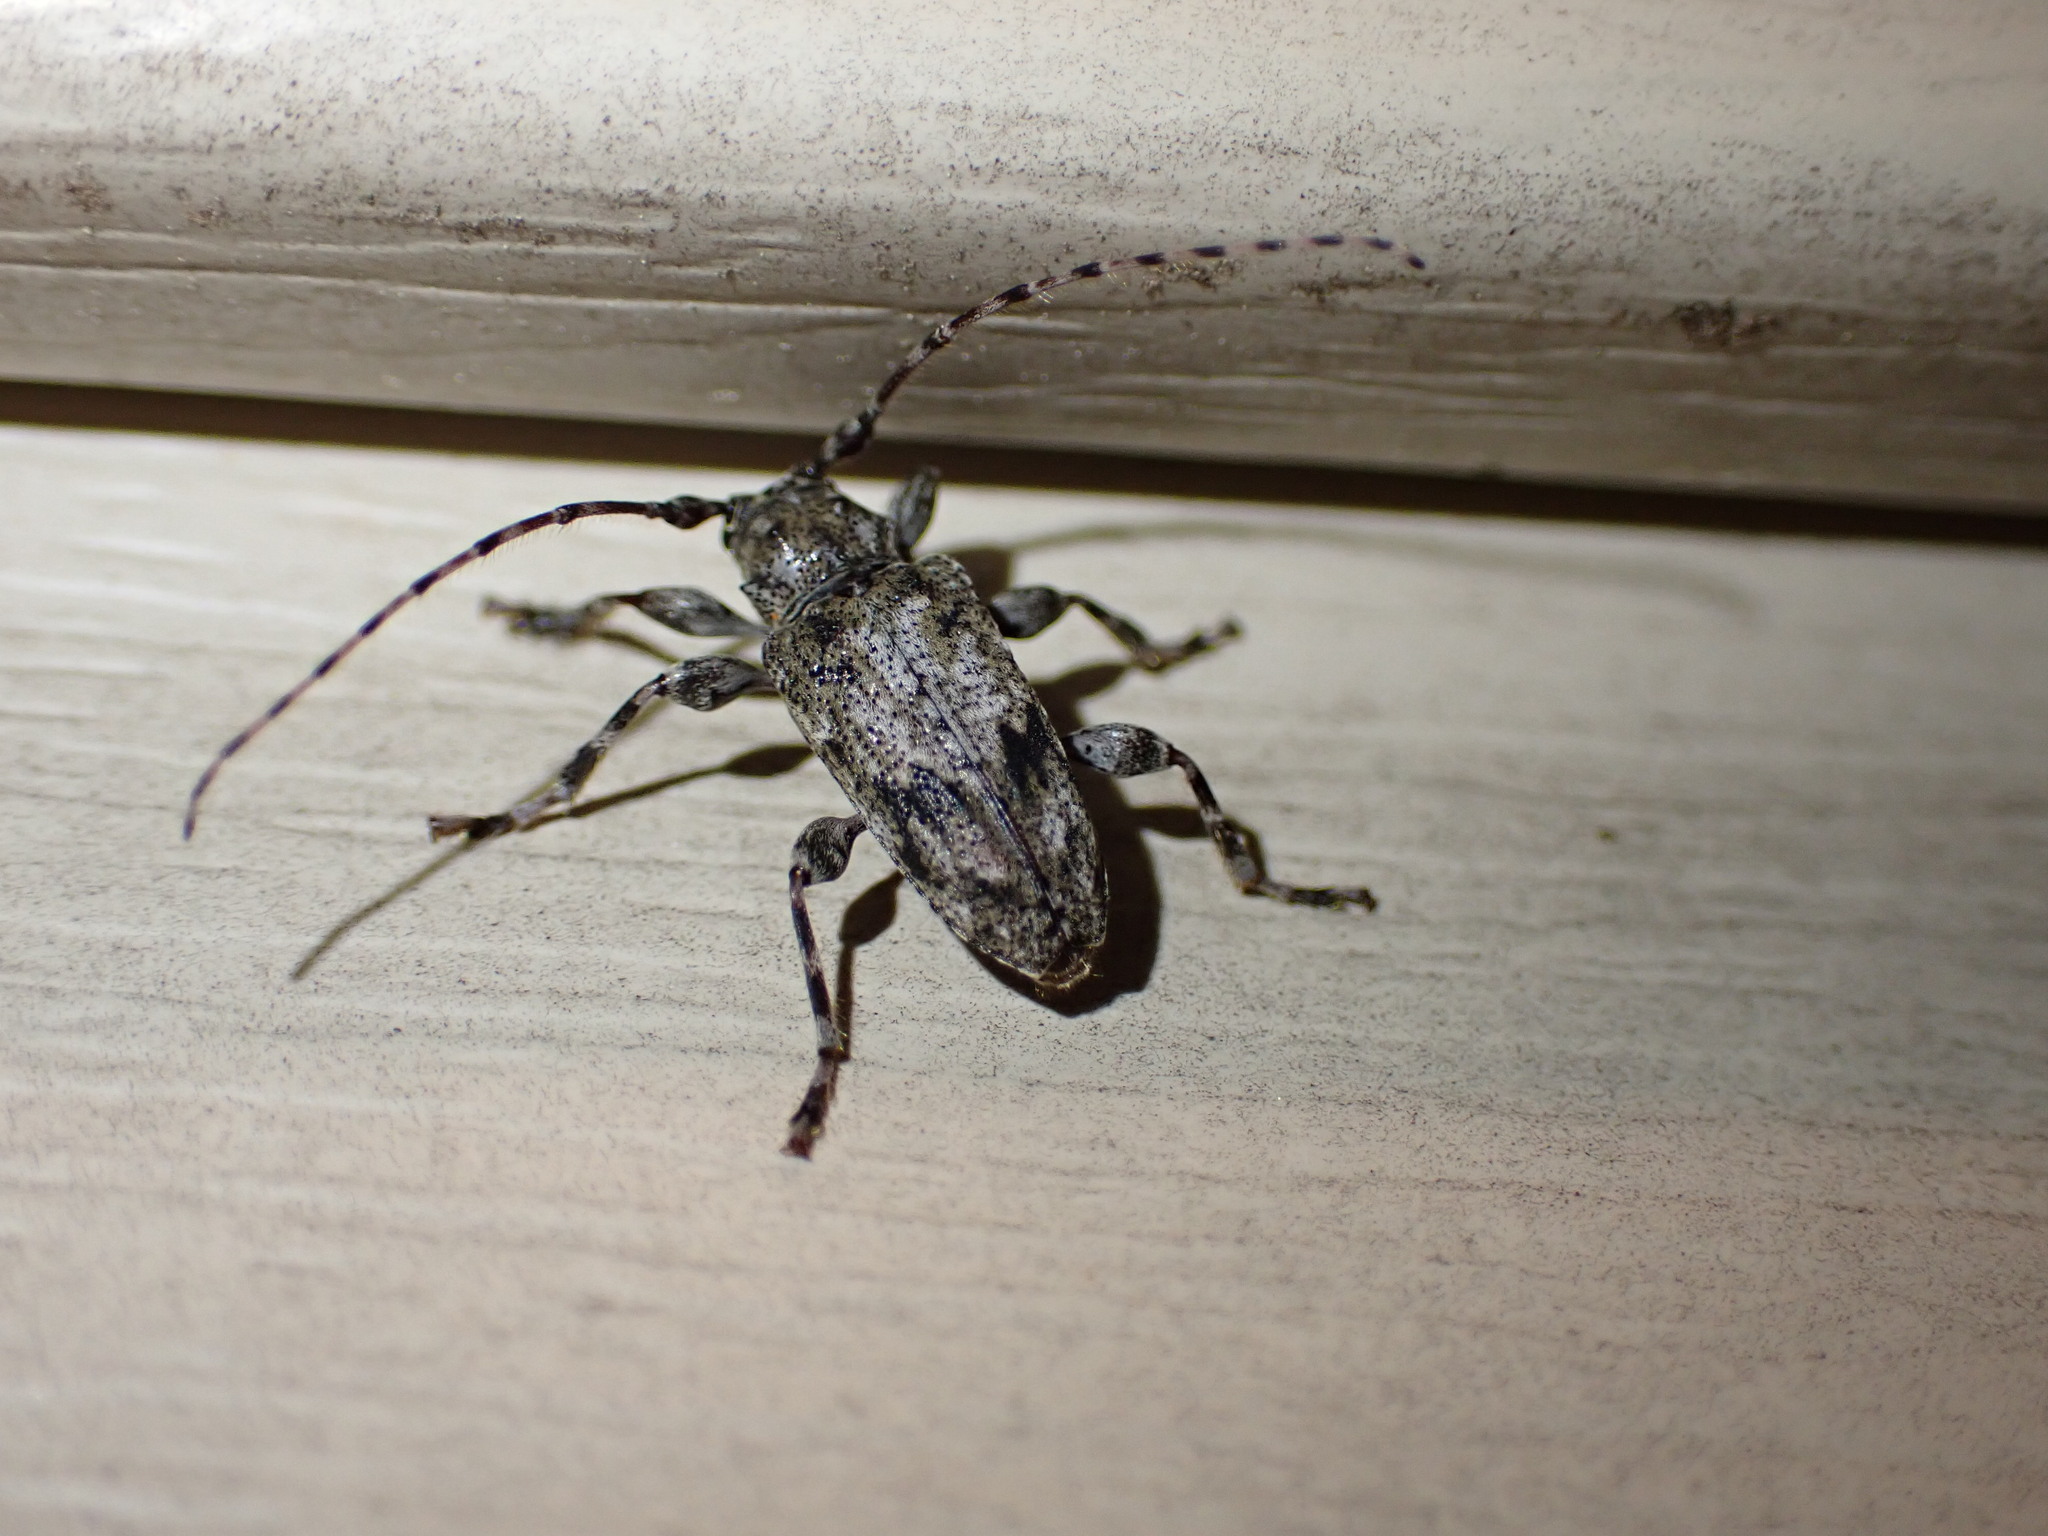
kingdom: Animalia
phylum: Arthropoda
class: Insecta
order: Coleoptera
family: Cerambycidae
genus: Aegomorphus
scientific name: Aegomorphus modestus
